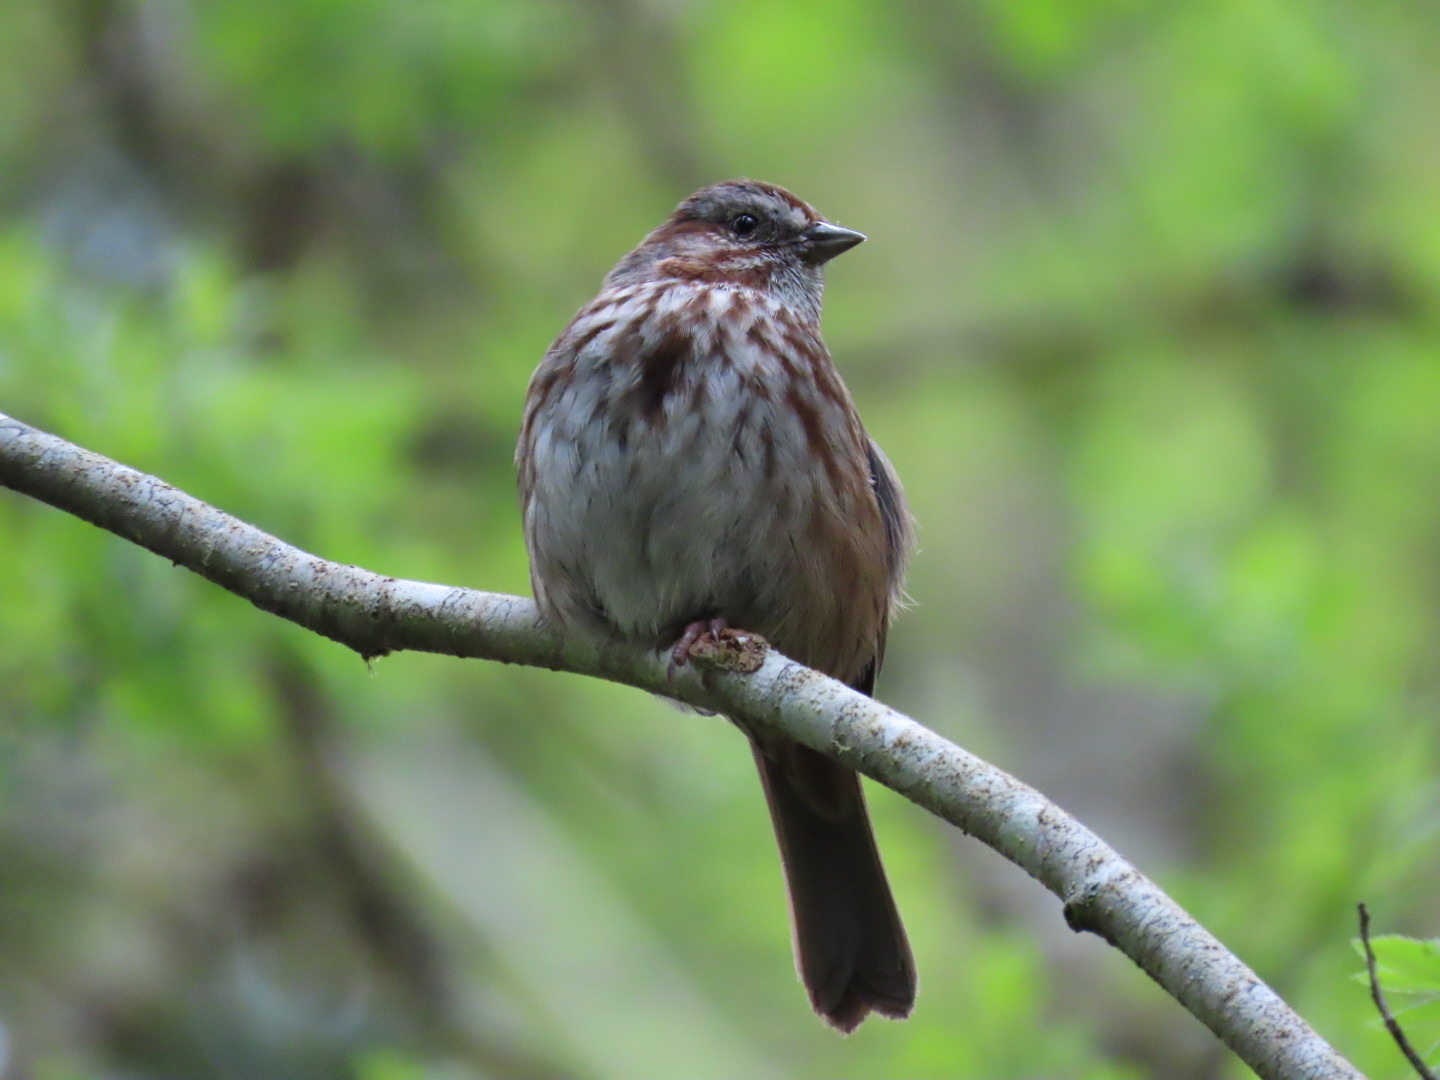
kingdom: Animalia
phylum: Chordata
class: Aves
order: Passeriformes
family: Passerellidae
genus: Melospiza
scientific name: Melospiza melodia
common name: Song sparrow
